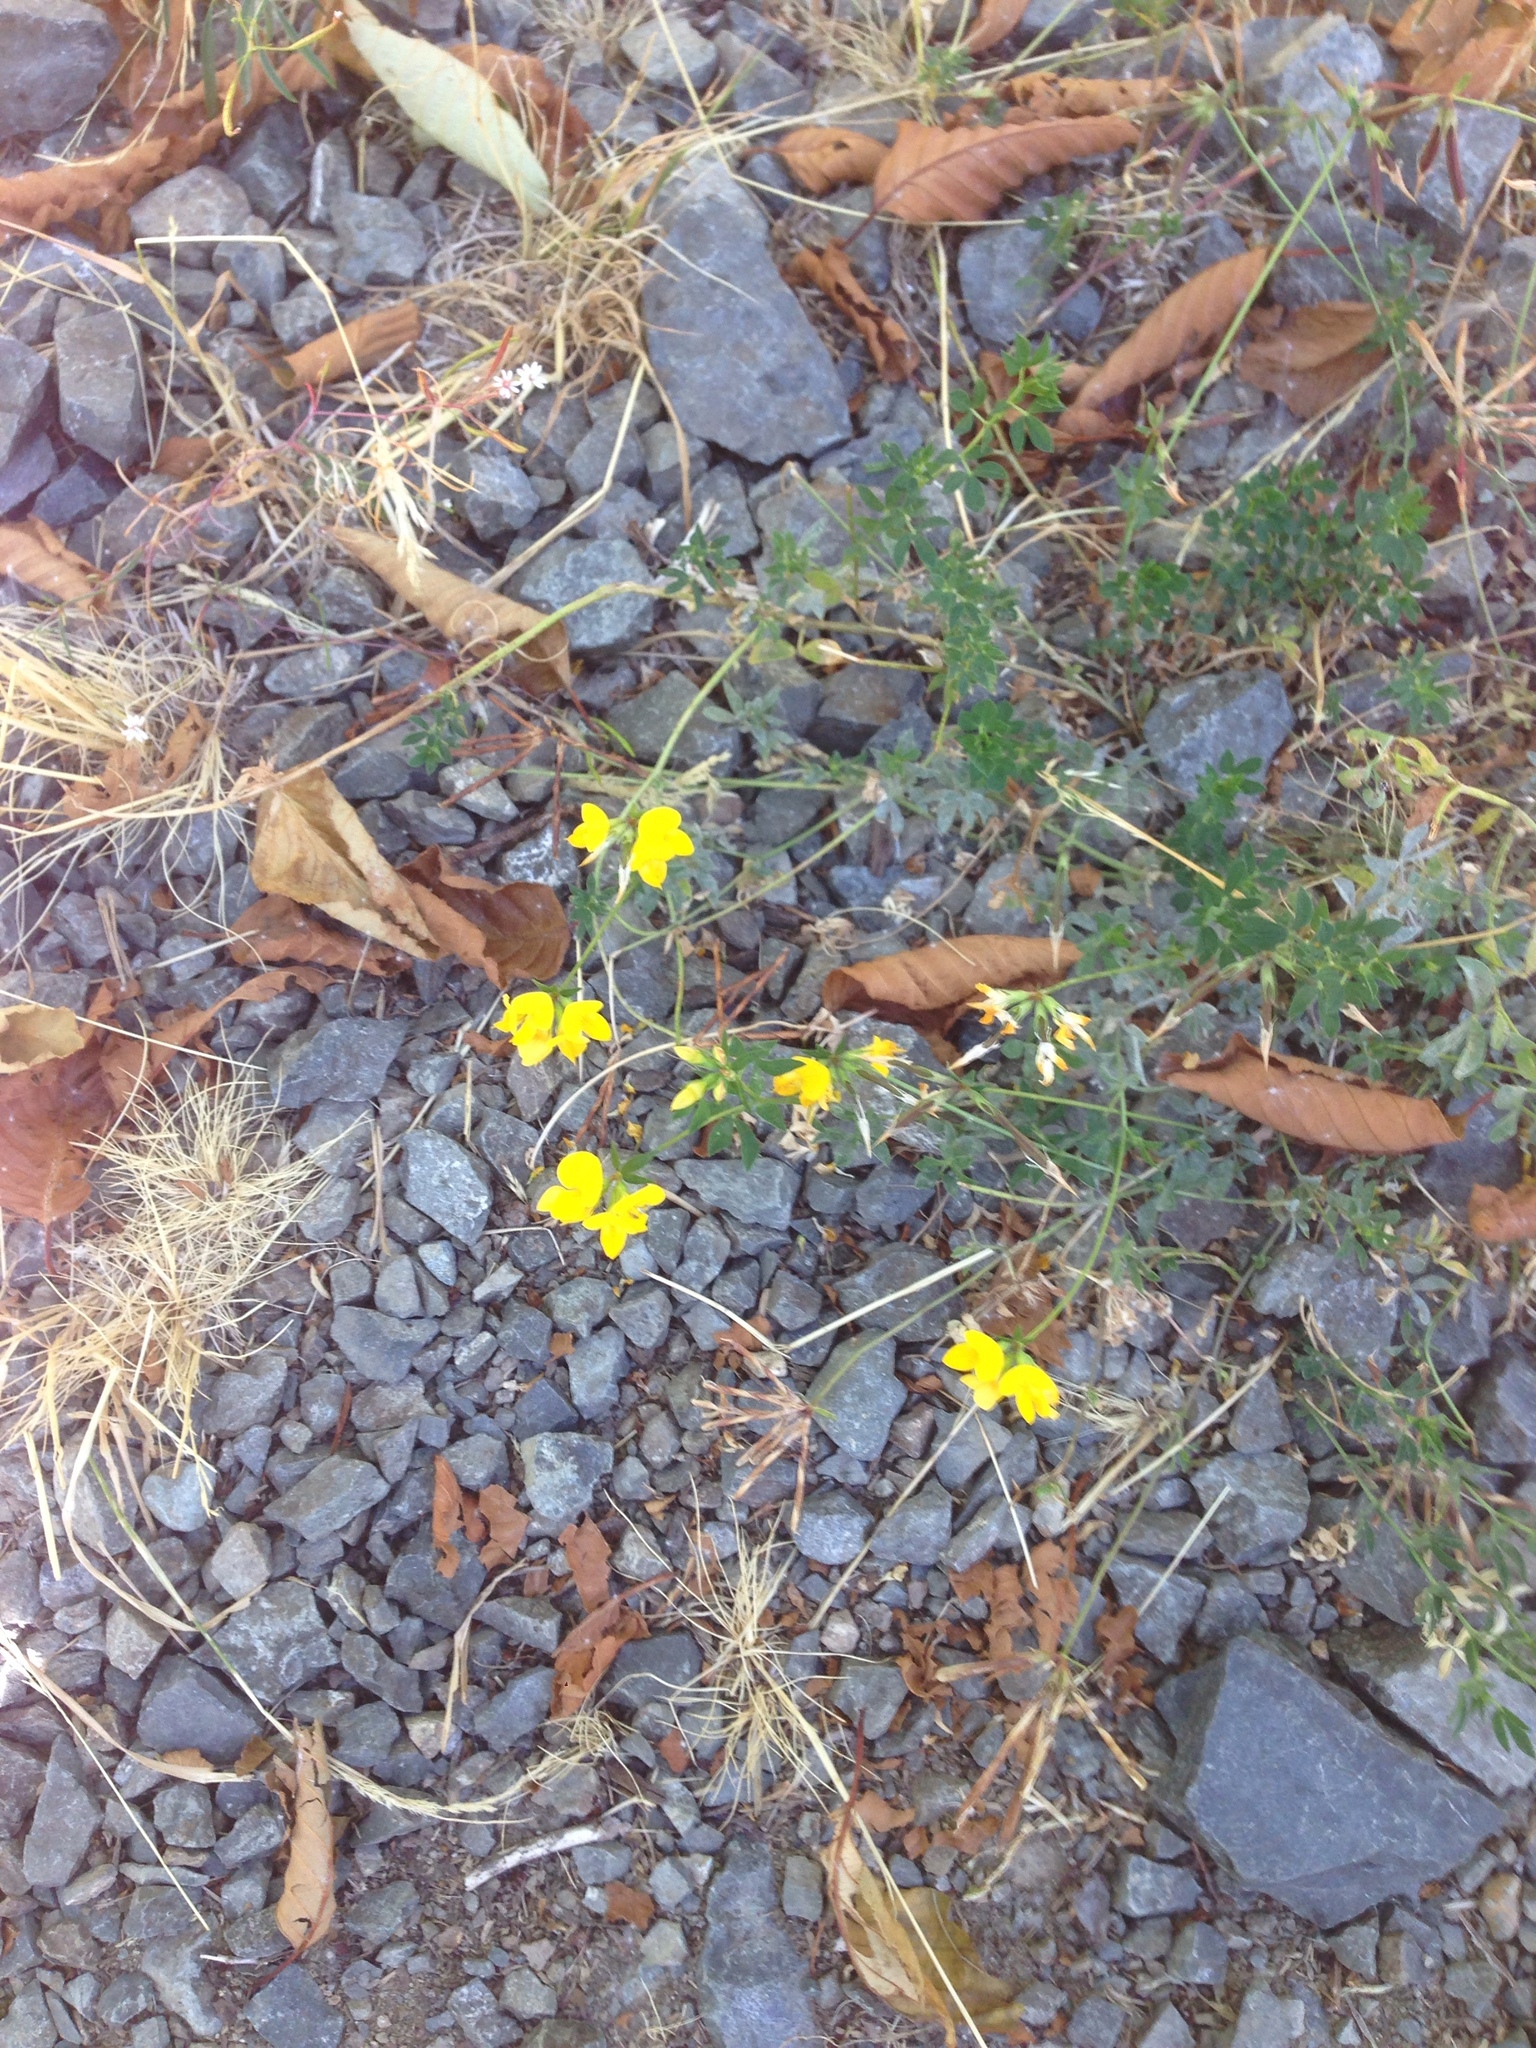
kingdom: Plantae
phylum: Tracheophyta
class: Magnoliopsida
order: Fabales
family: Fabaceae
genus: Lotus
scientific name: Lotus corniculatus
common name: Common bird's-foot-trefoil
